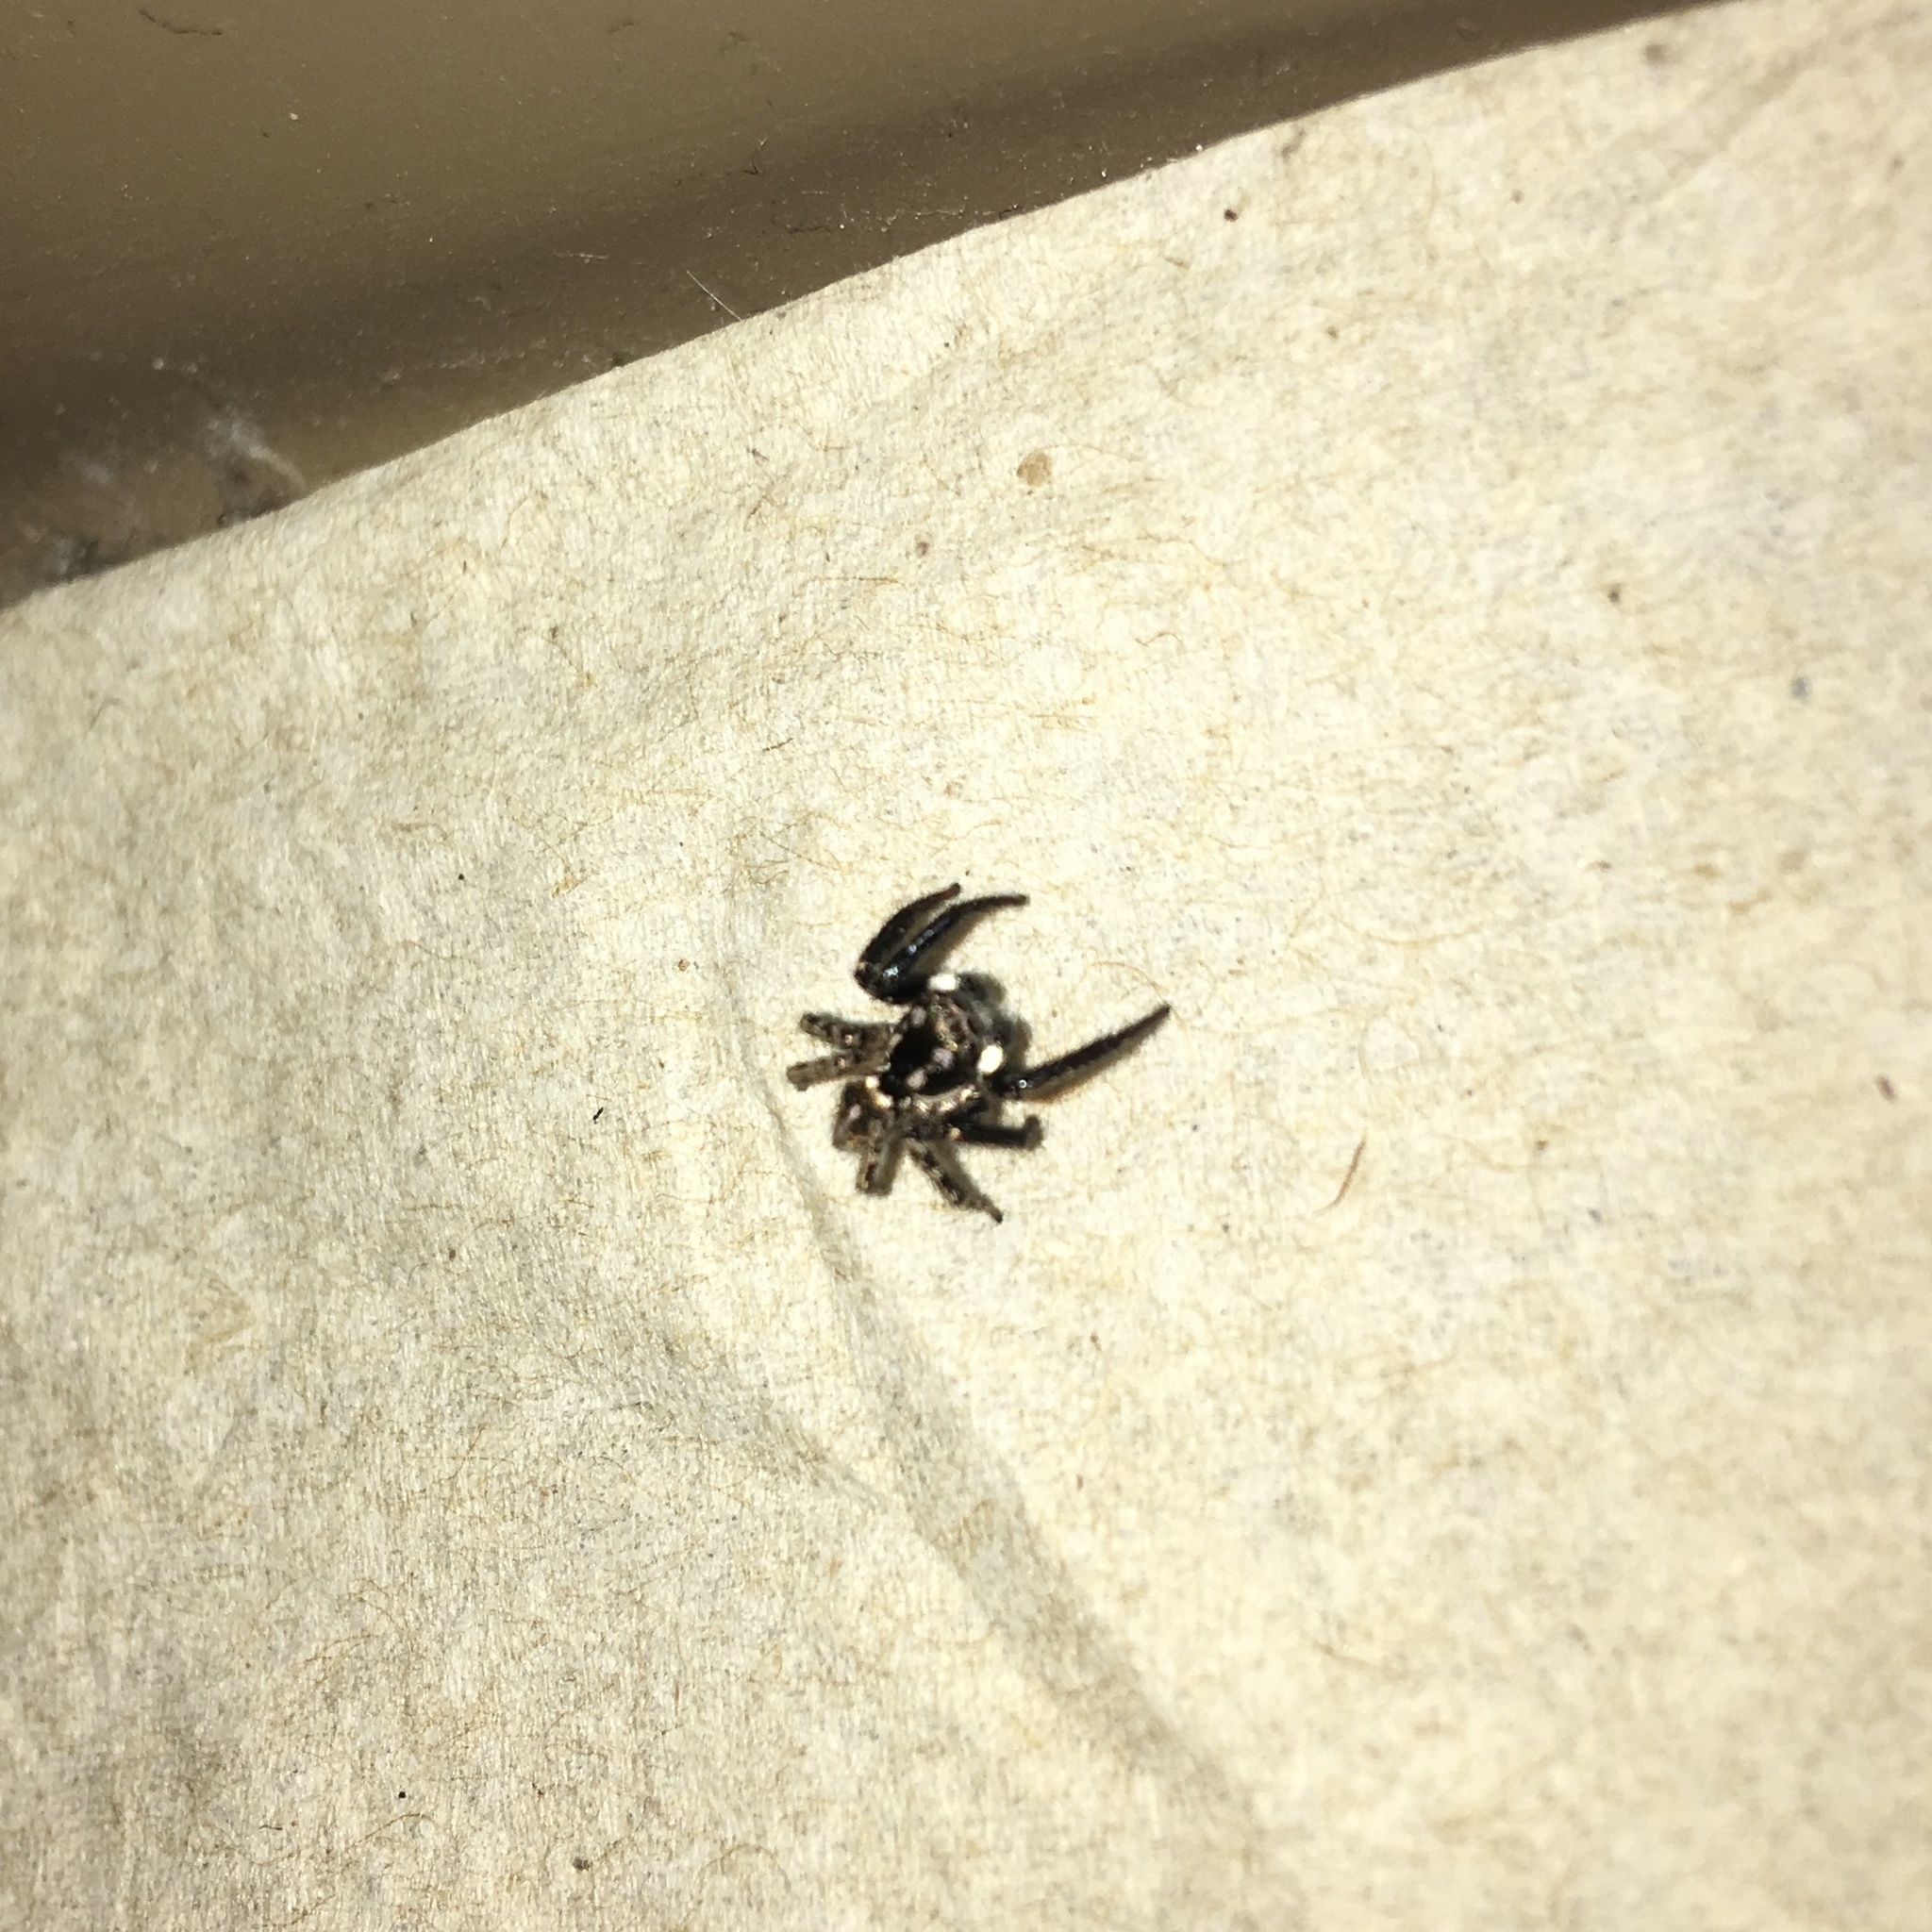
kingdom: Animalia
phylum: Arthropoda
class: Arachnida
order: Araneae
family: Salticidae
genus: Anasaitis
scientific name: Anasaitis canosa
